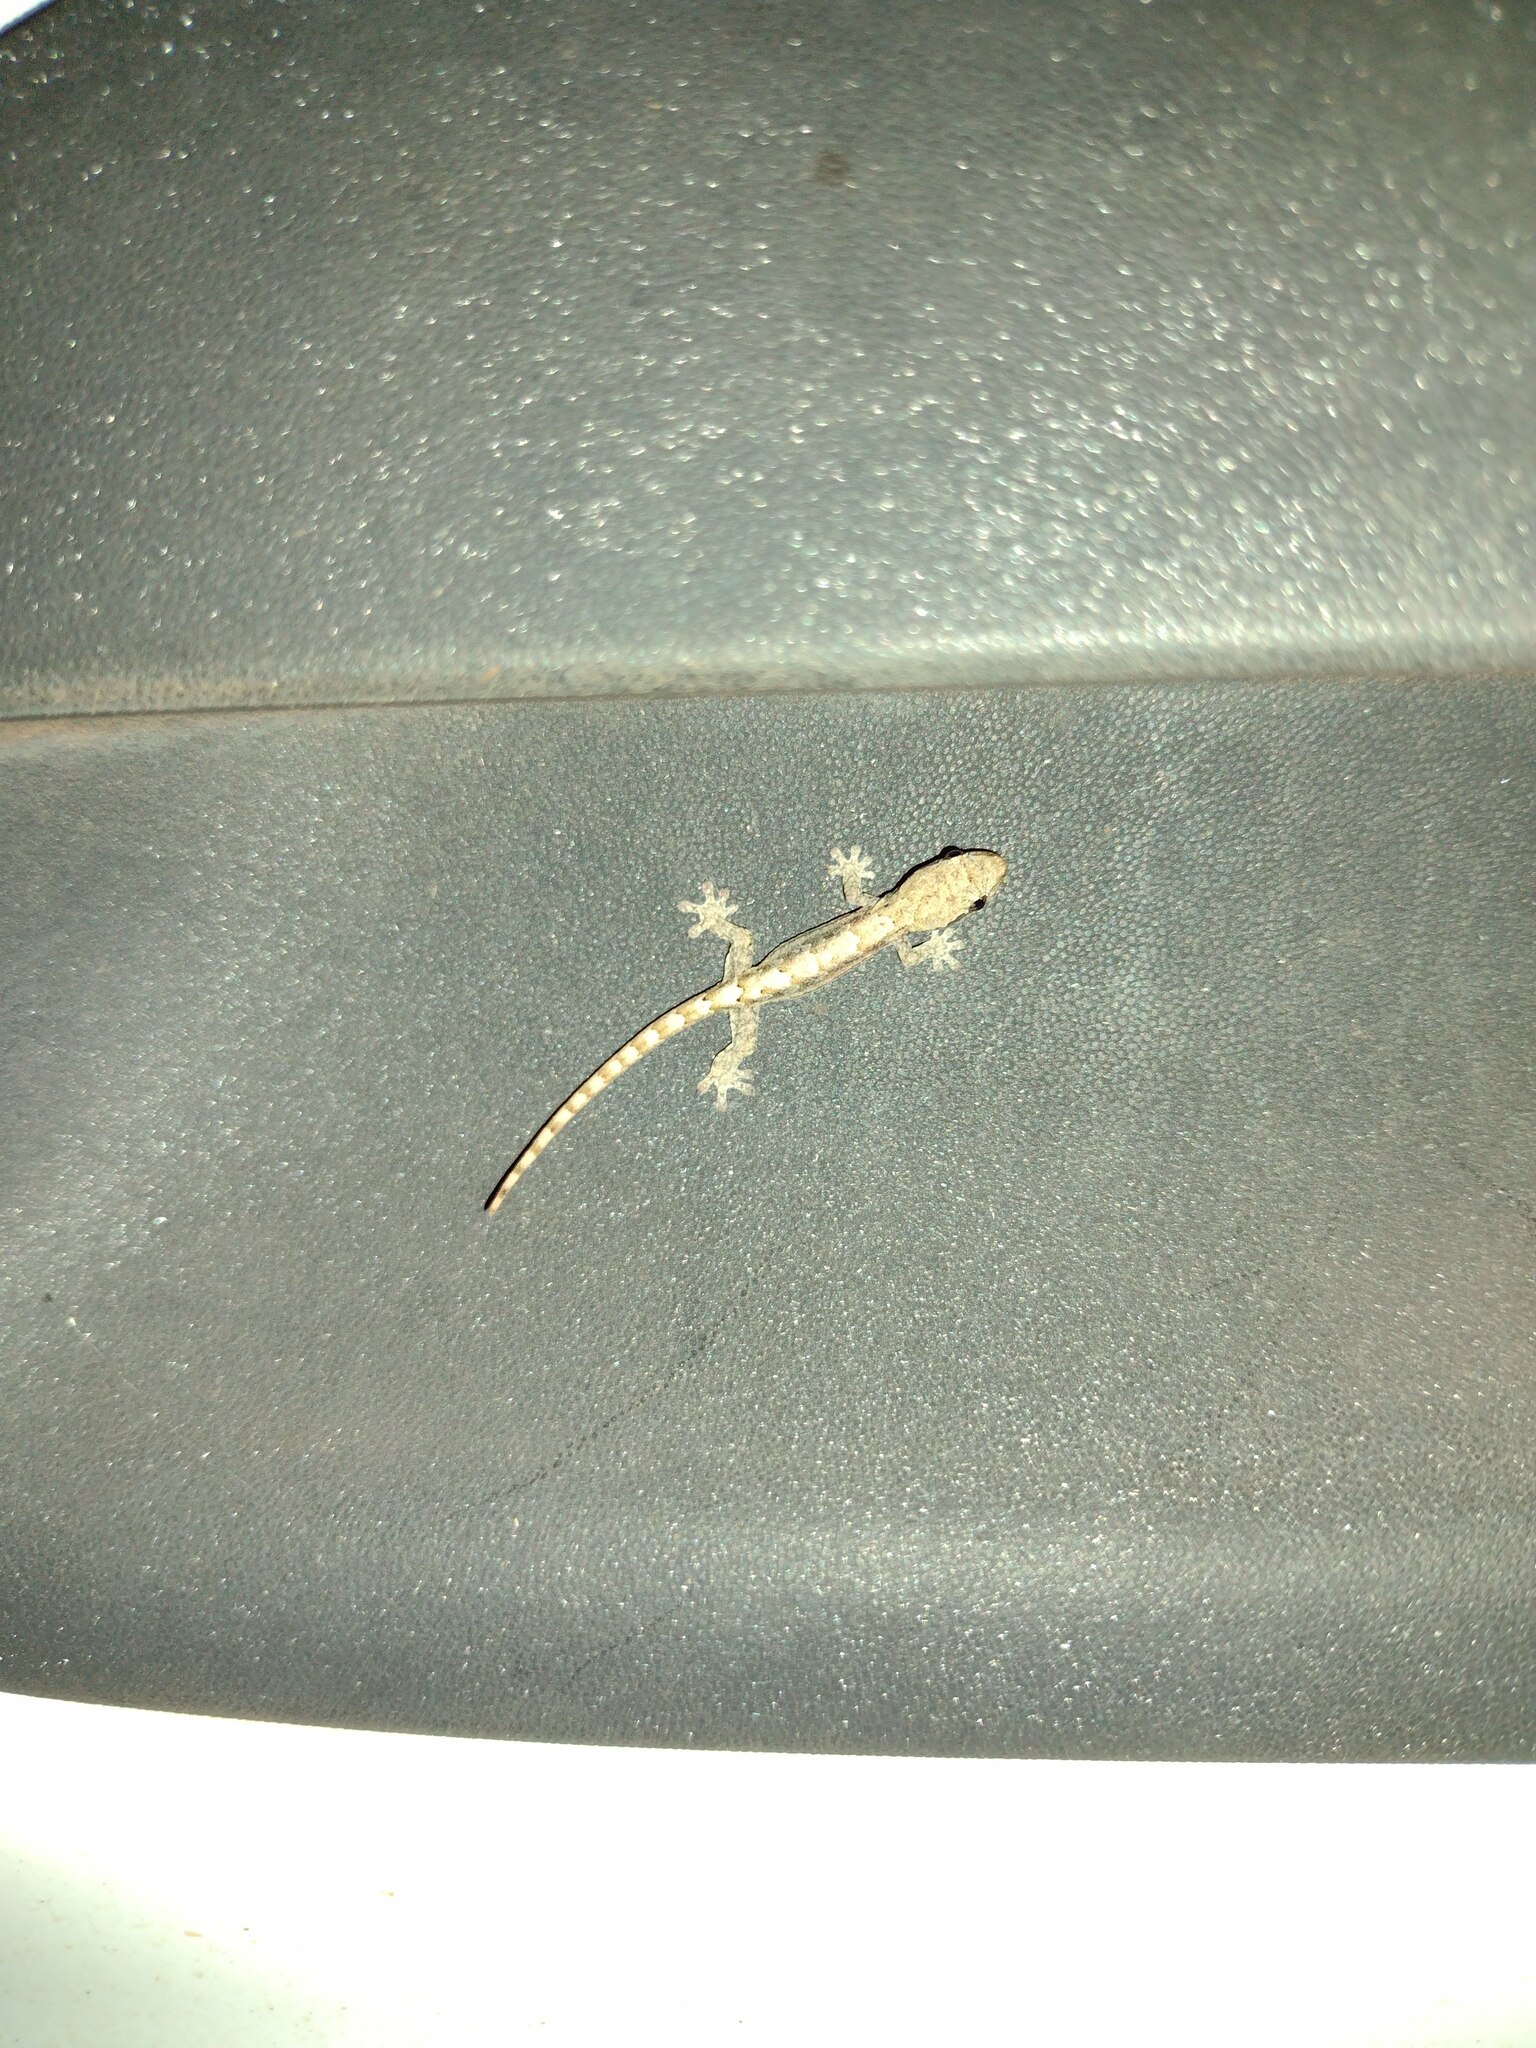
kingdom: Animalia
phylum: Chordata
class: Squamata
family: Gekkonidae
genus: Lepidodactylus
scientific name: Lepidodactylus lugubris
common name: Mourning gecko
